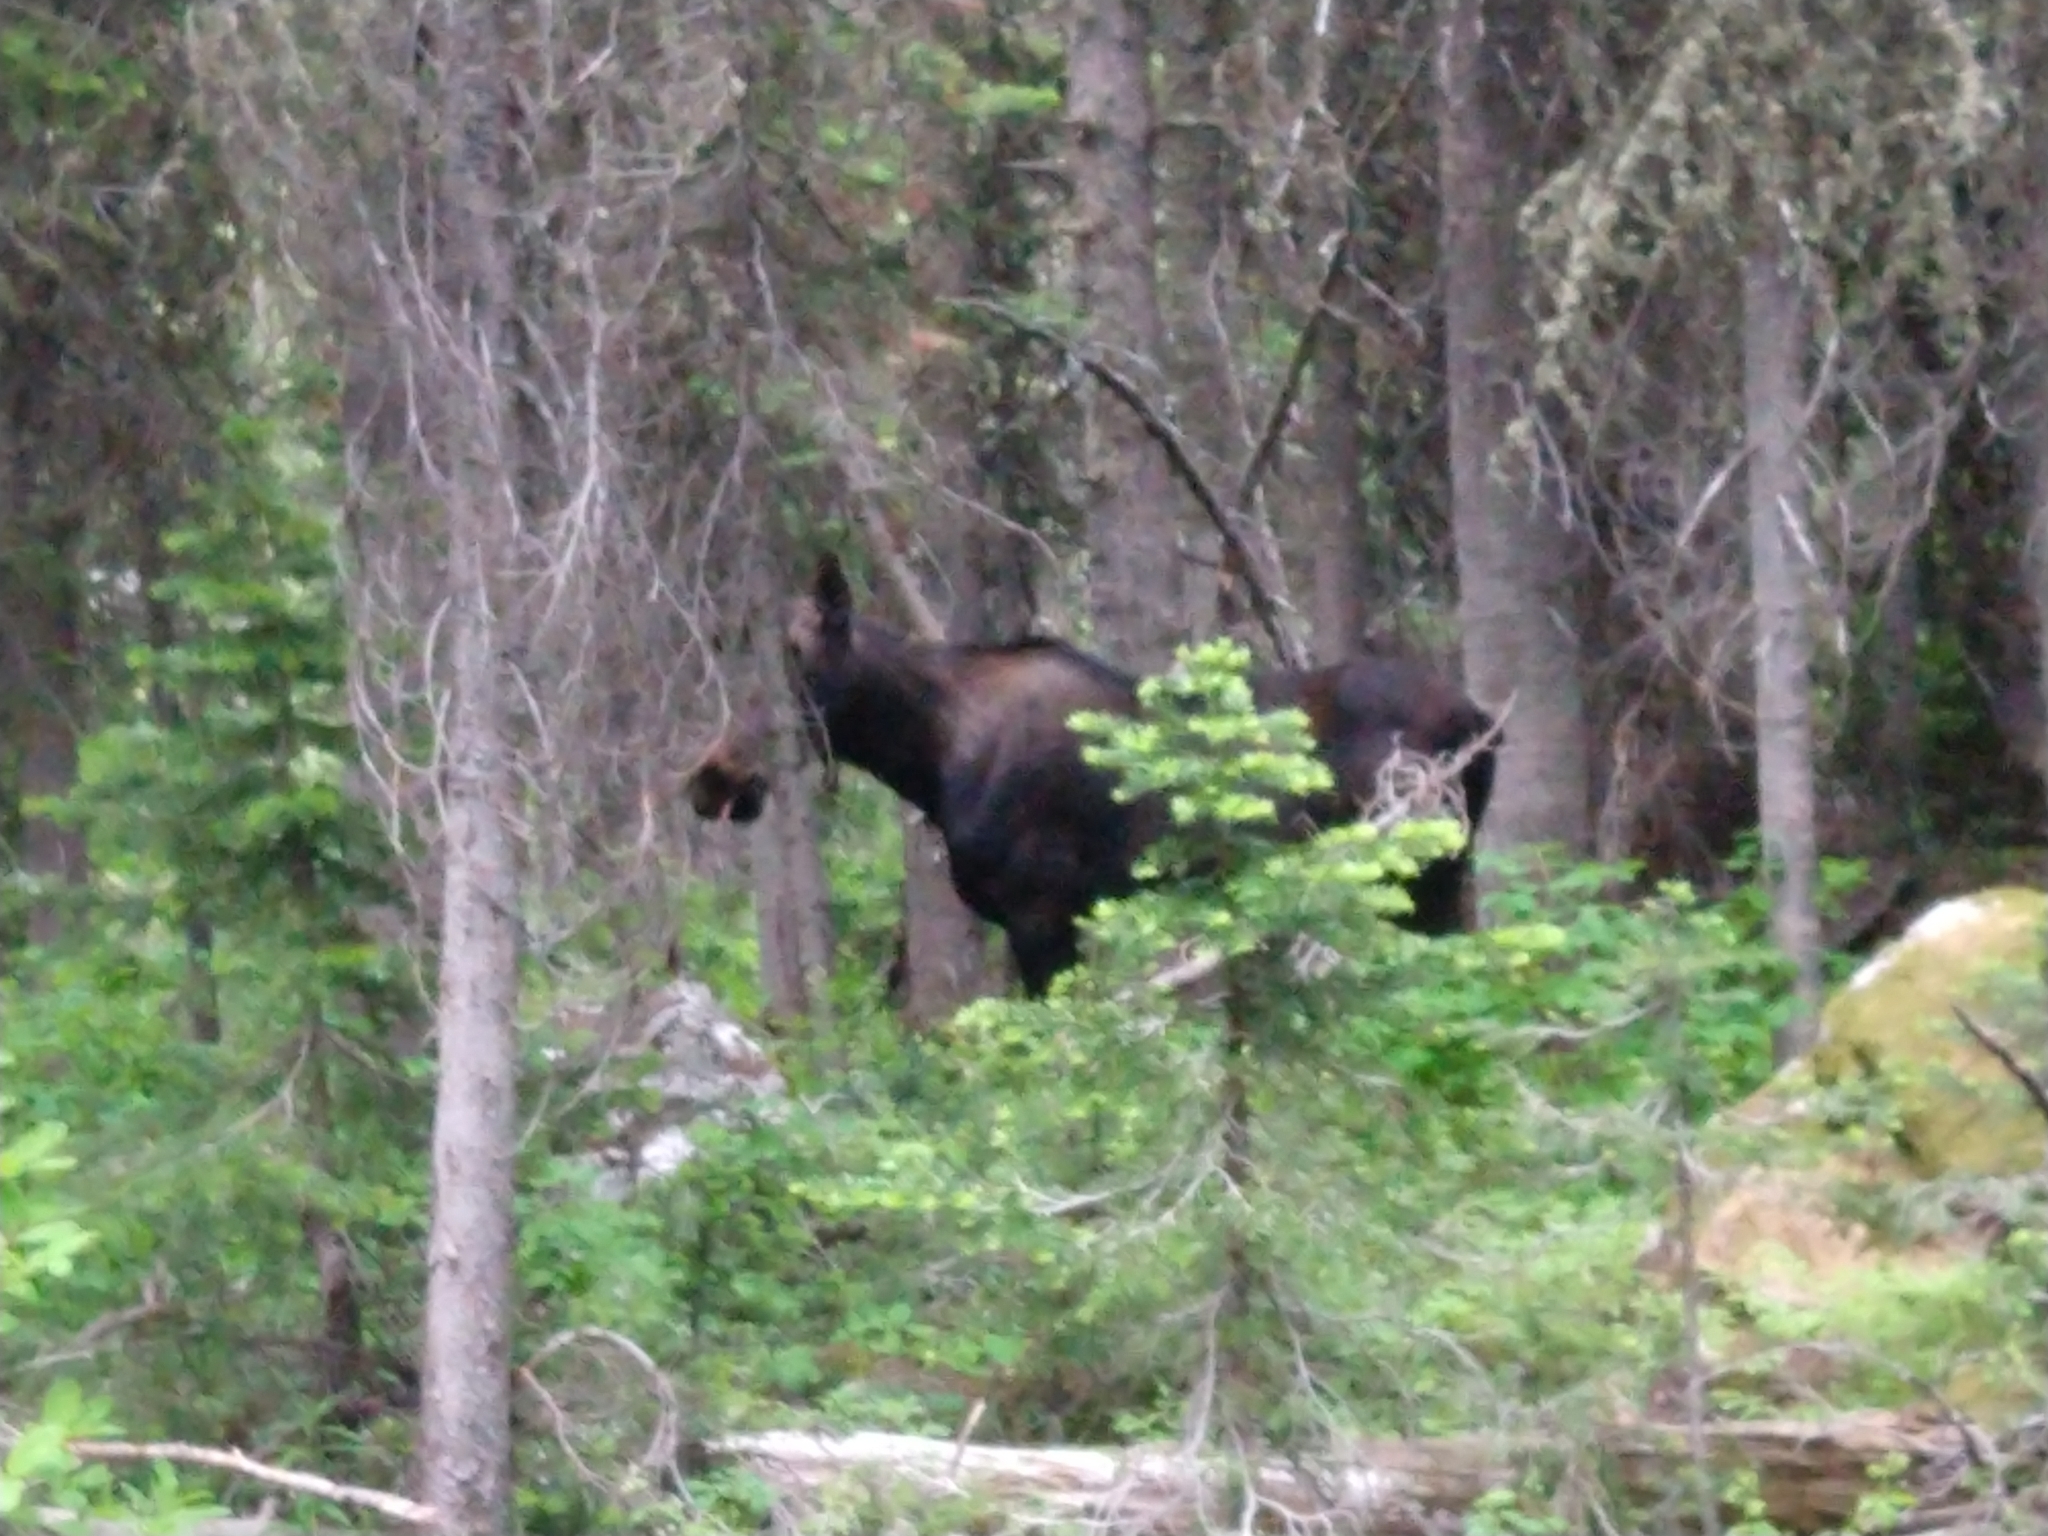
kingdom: Animalia
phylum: Chordata
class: Mammalia
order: Artiodactyla
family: Cervidae
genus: Alces
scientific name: Alces alces
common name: Moose
